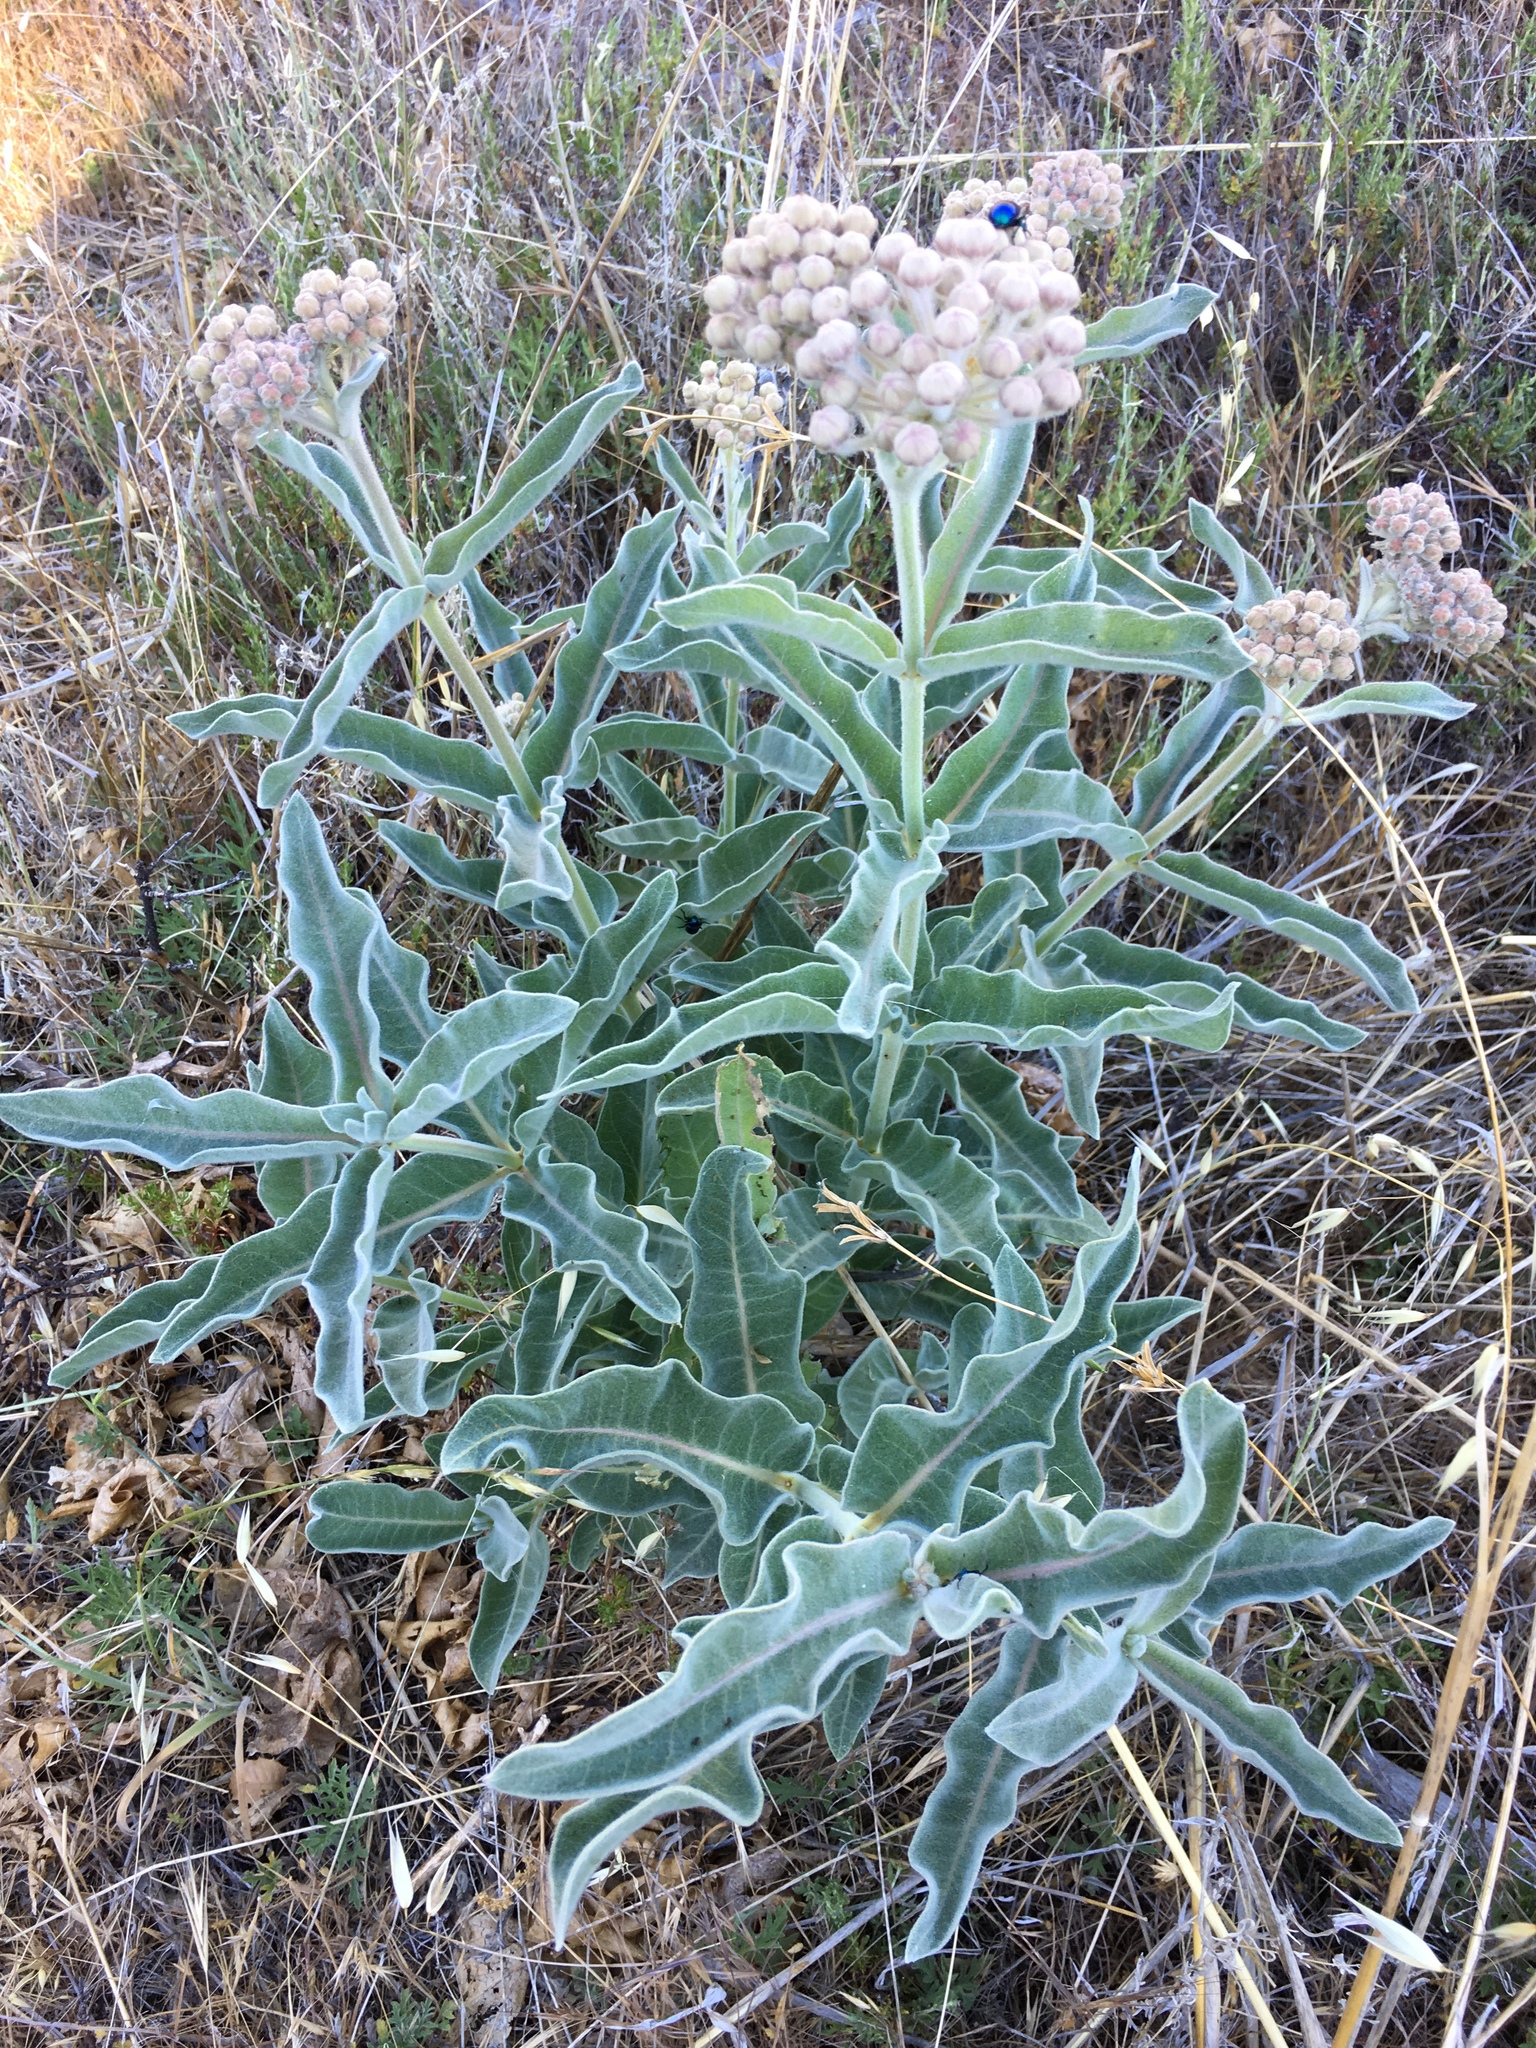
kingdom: Plantae
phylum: Tracheophyta
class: Magnoliopsida
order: Gentianales
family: Apocynaceae
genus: Asclepias
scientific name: Asclepias eriocarpa
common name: Indian milkweed
